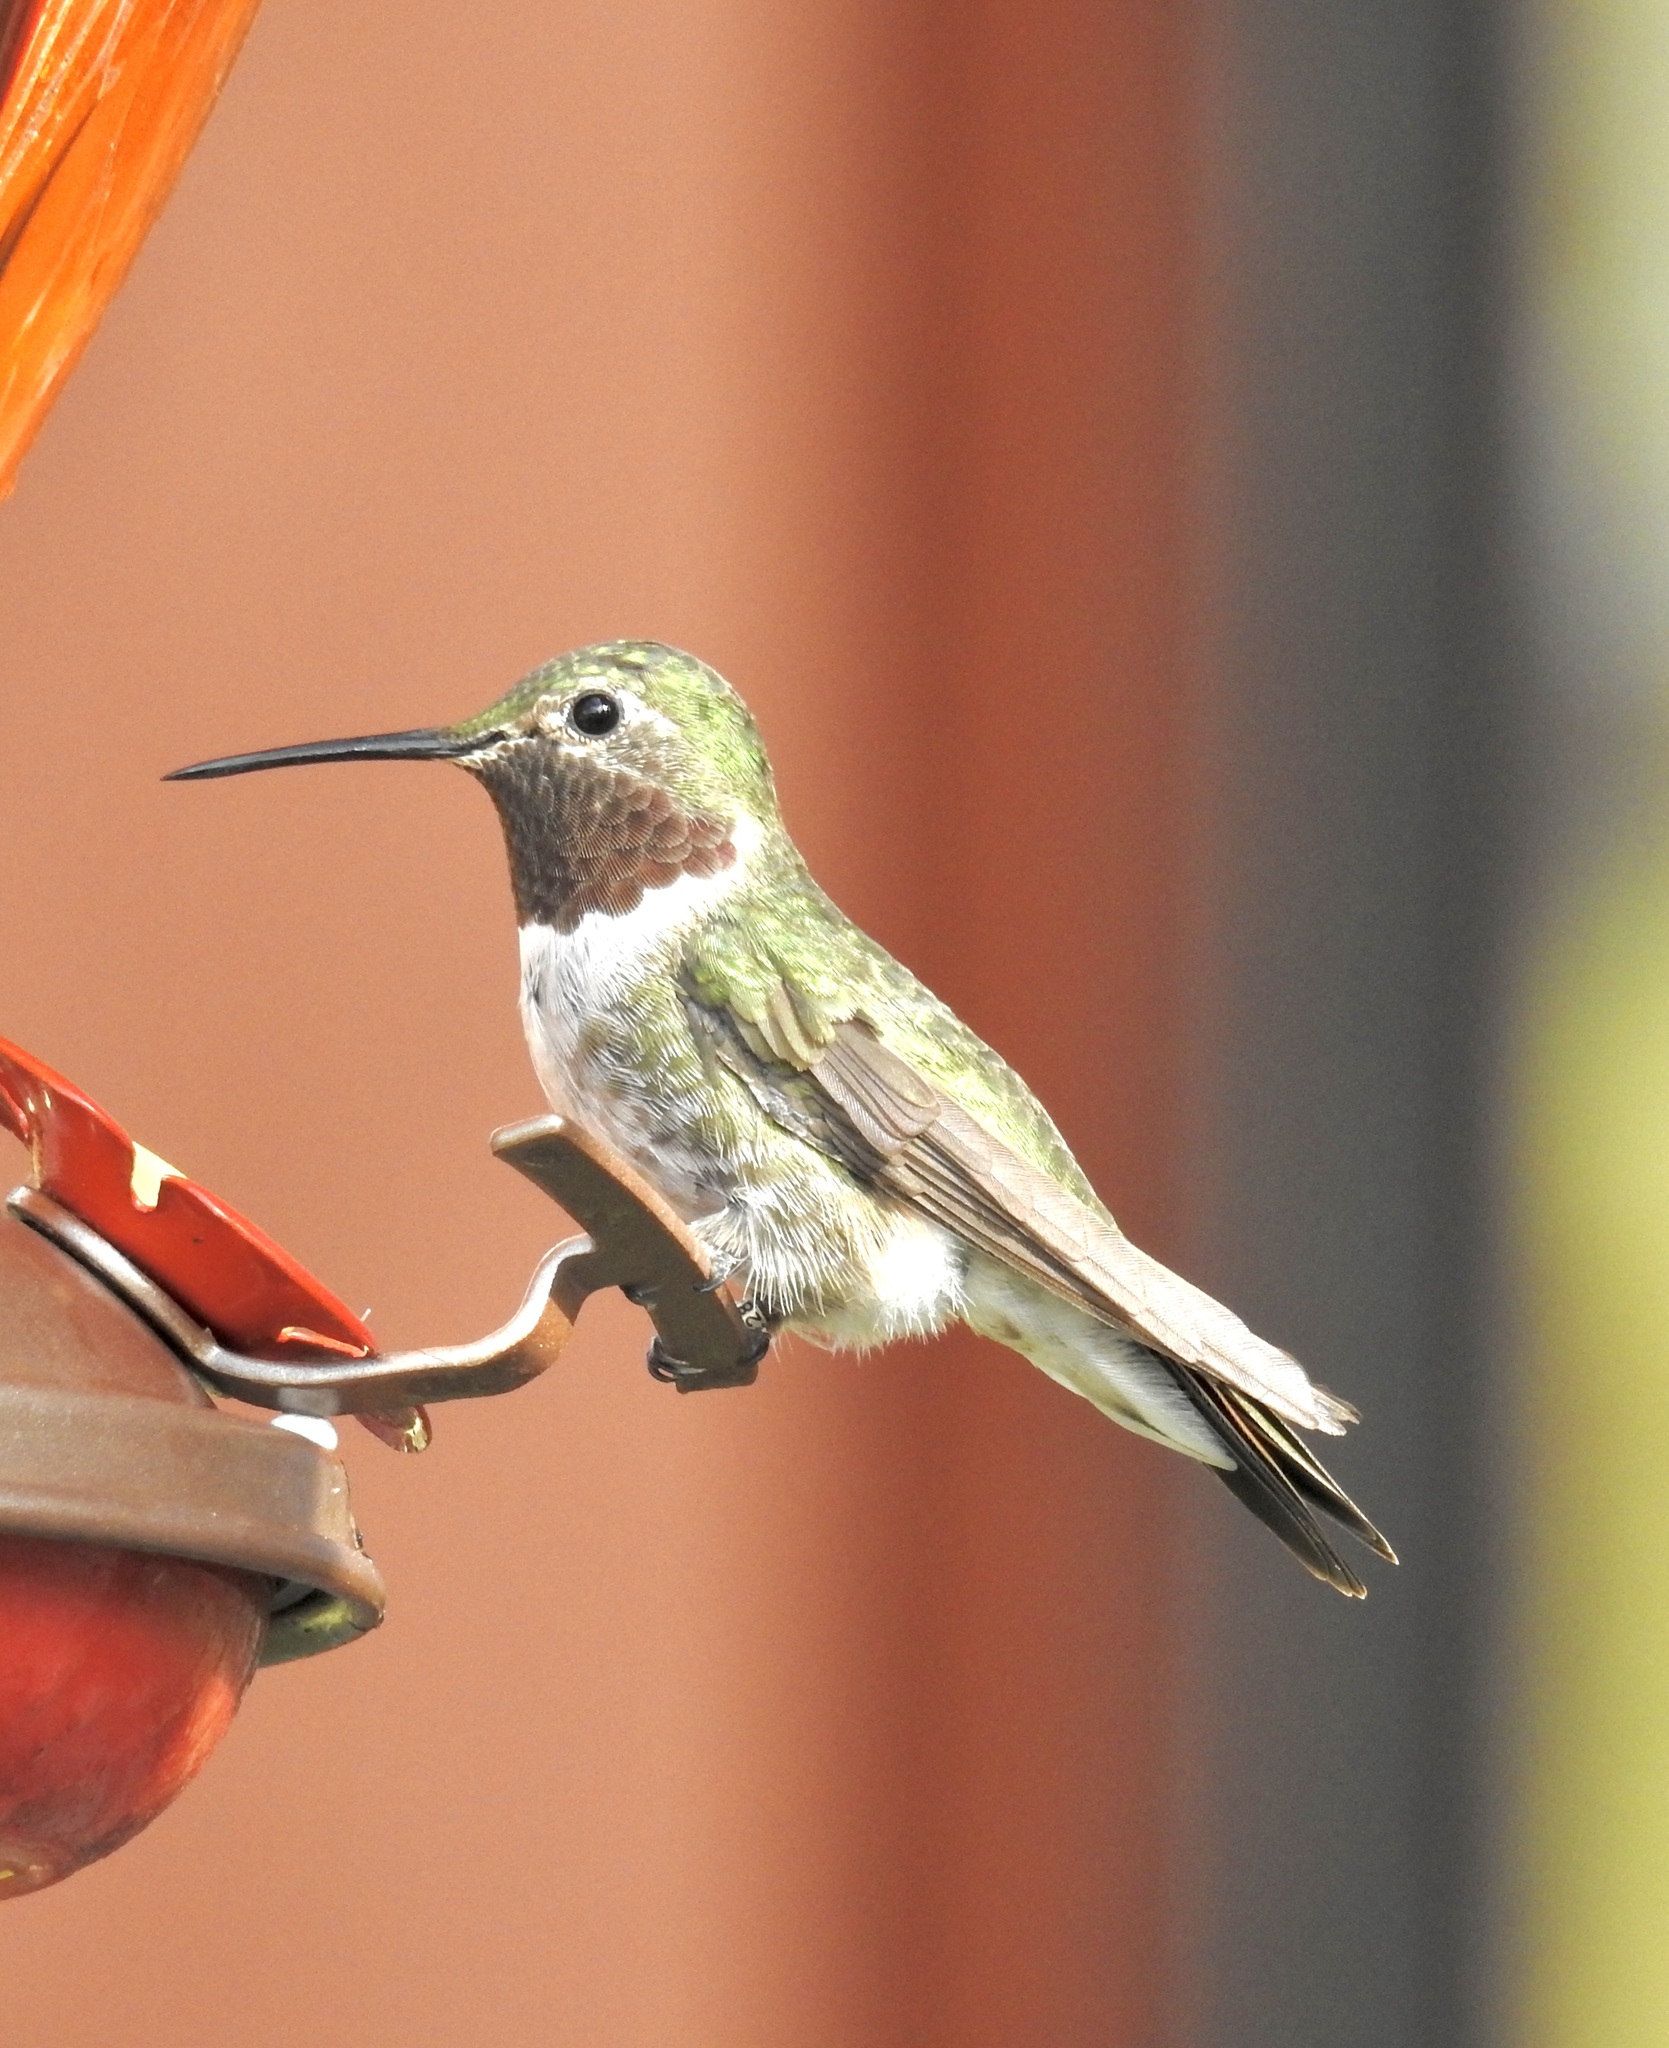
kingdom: Animalia
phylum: Chordata
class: Aves
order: Apodiformes
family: Trochilidae
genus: Selasphorus
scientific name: Selasphorus platycercus
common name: Broad-tailed hummingbird
